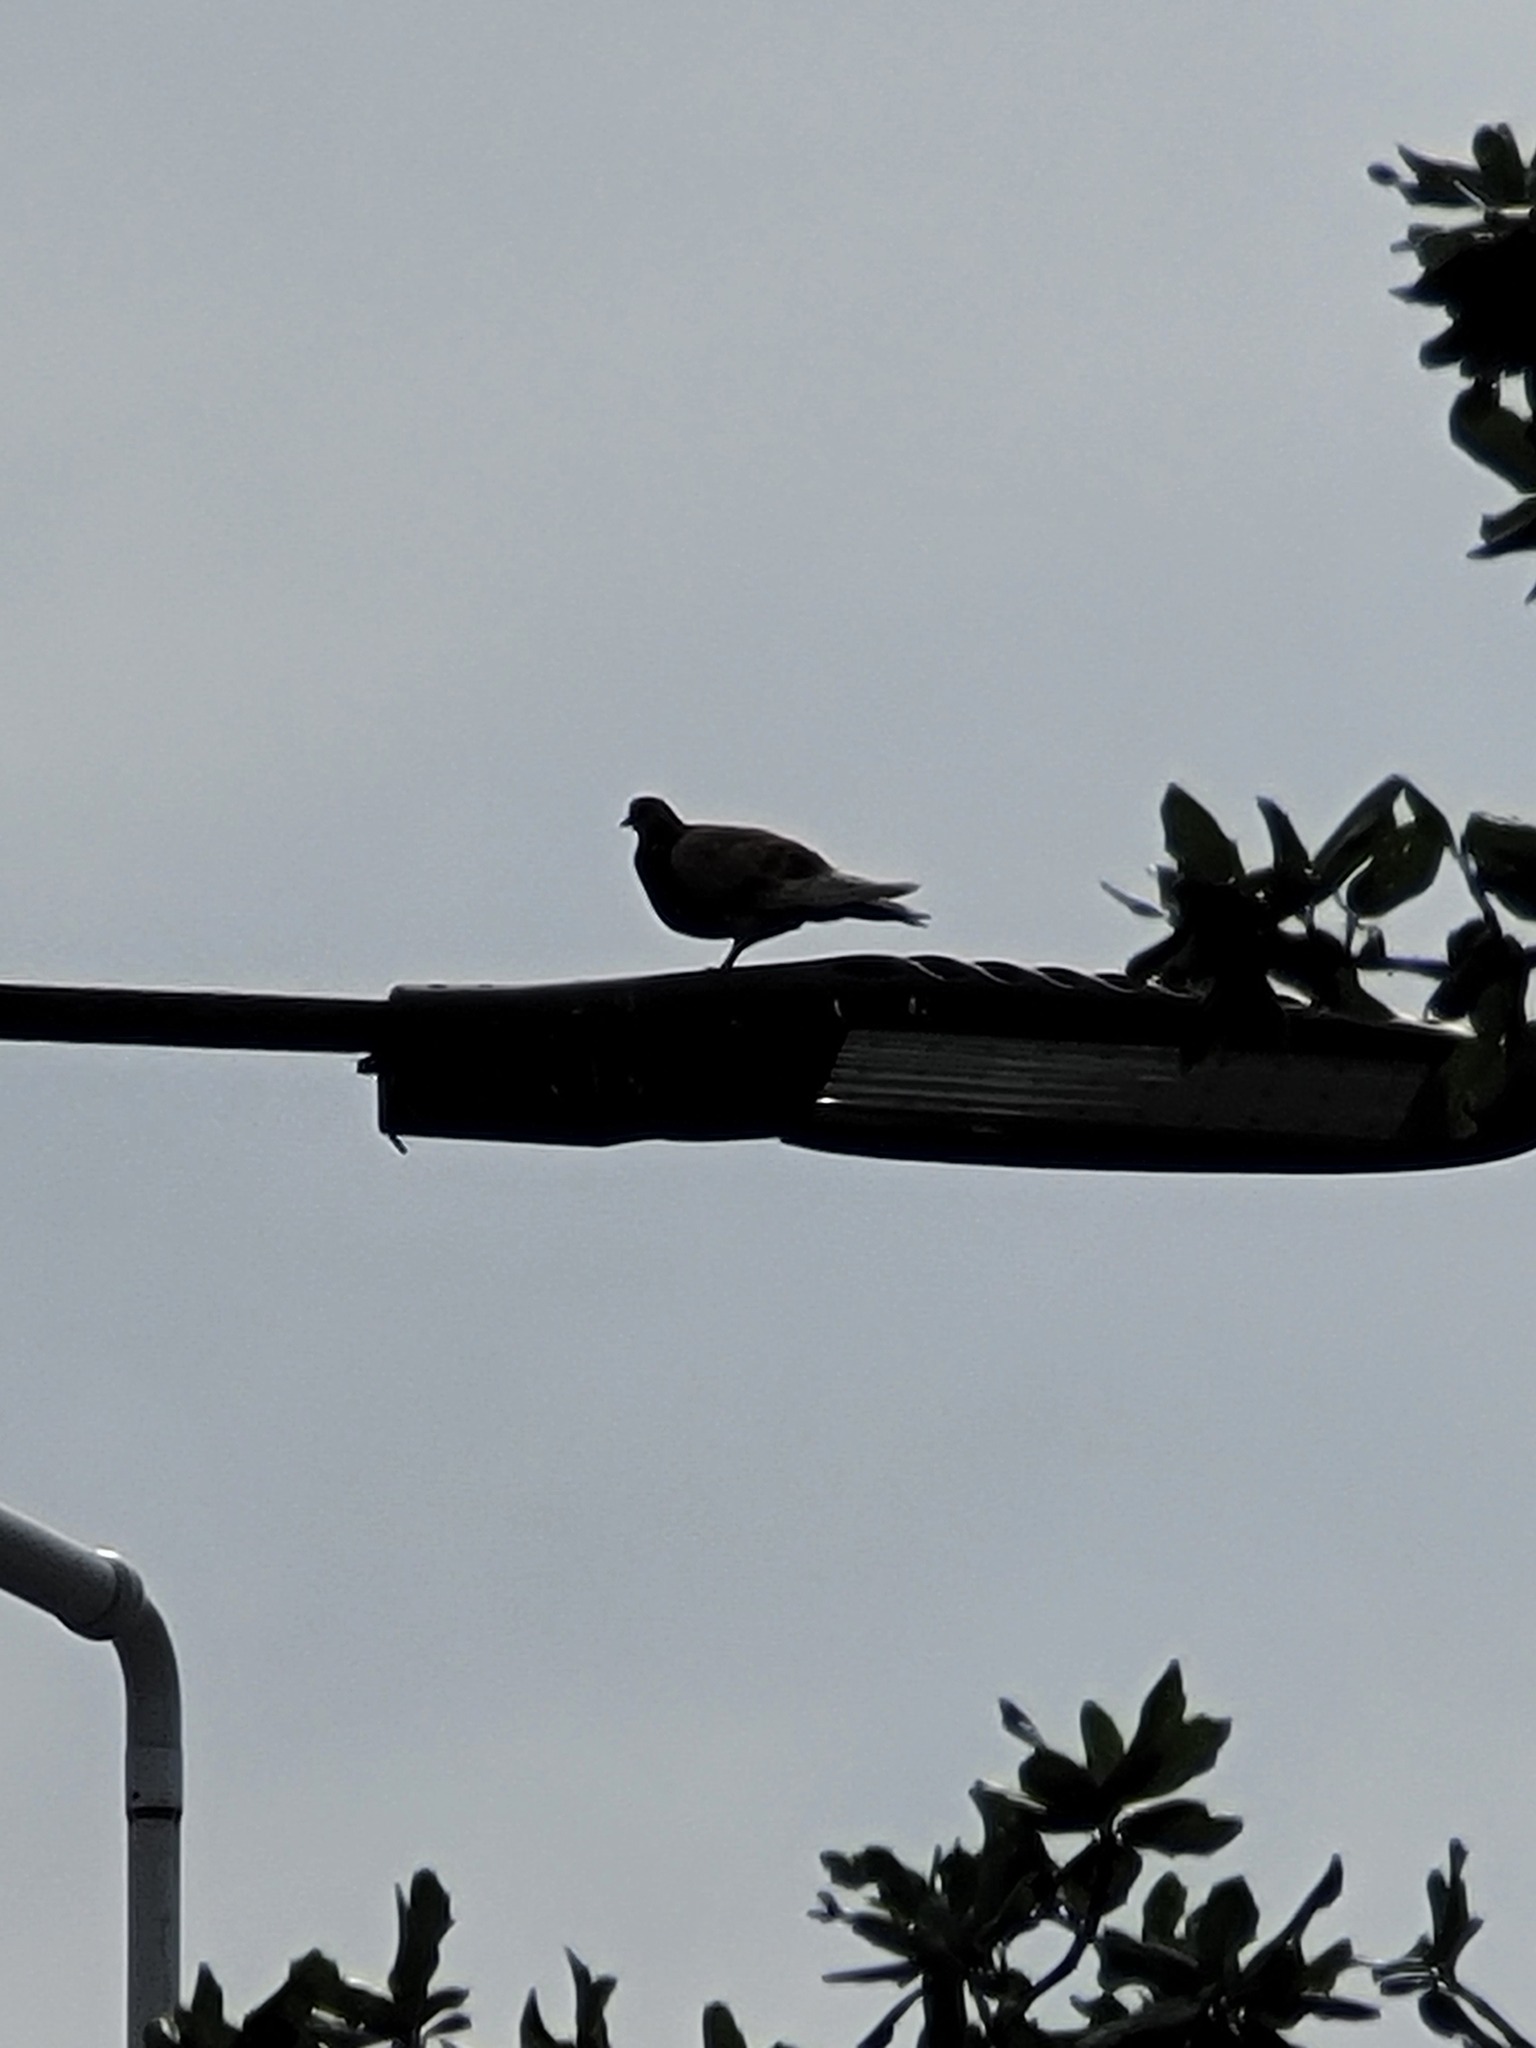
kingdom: Animalia
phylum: Chordata
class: Aves
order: Columbiformes
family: Columbidae
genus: Columba
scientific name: Columba livia
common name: Rock pigeon
